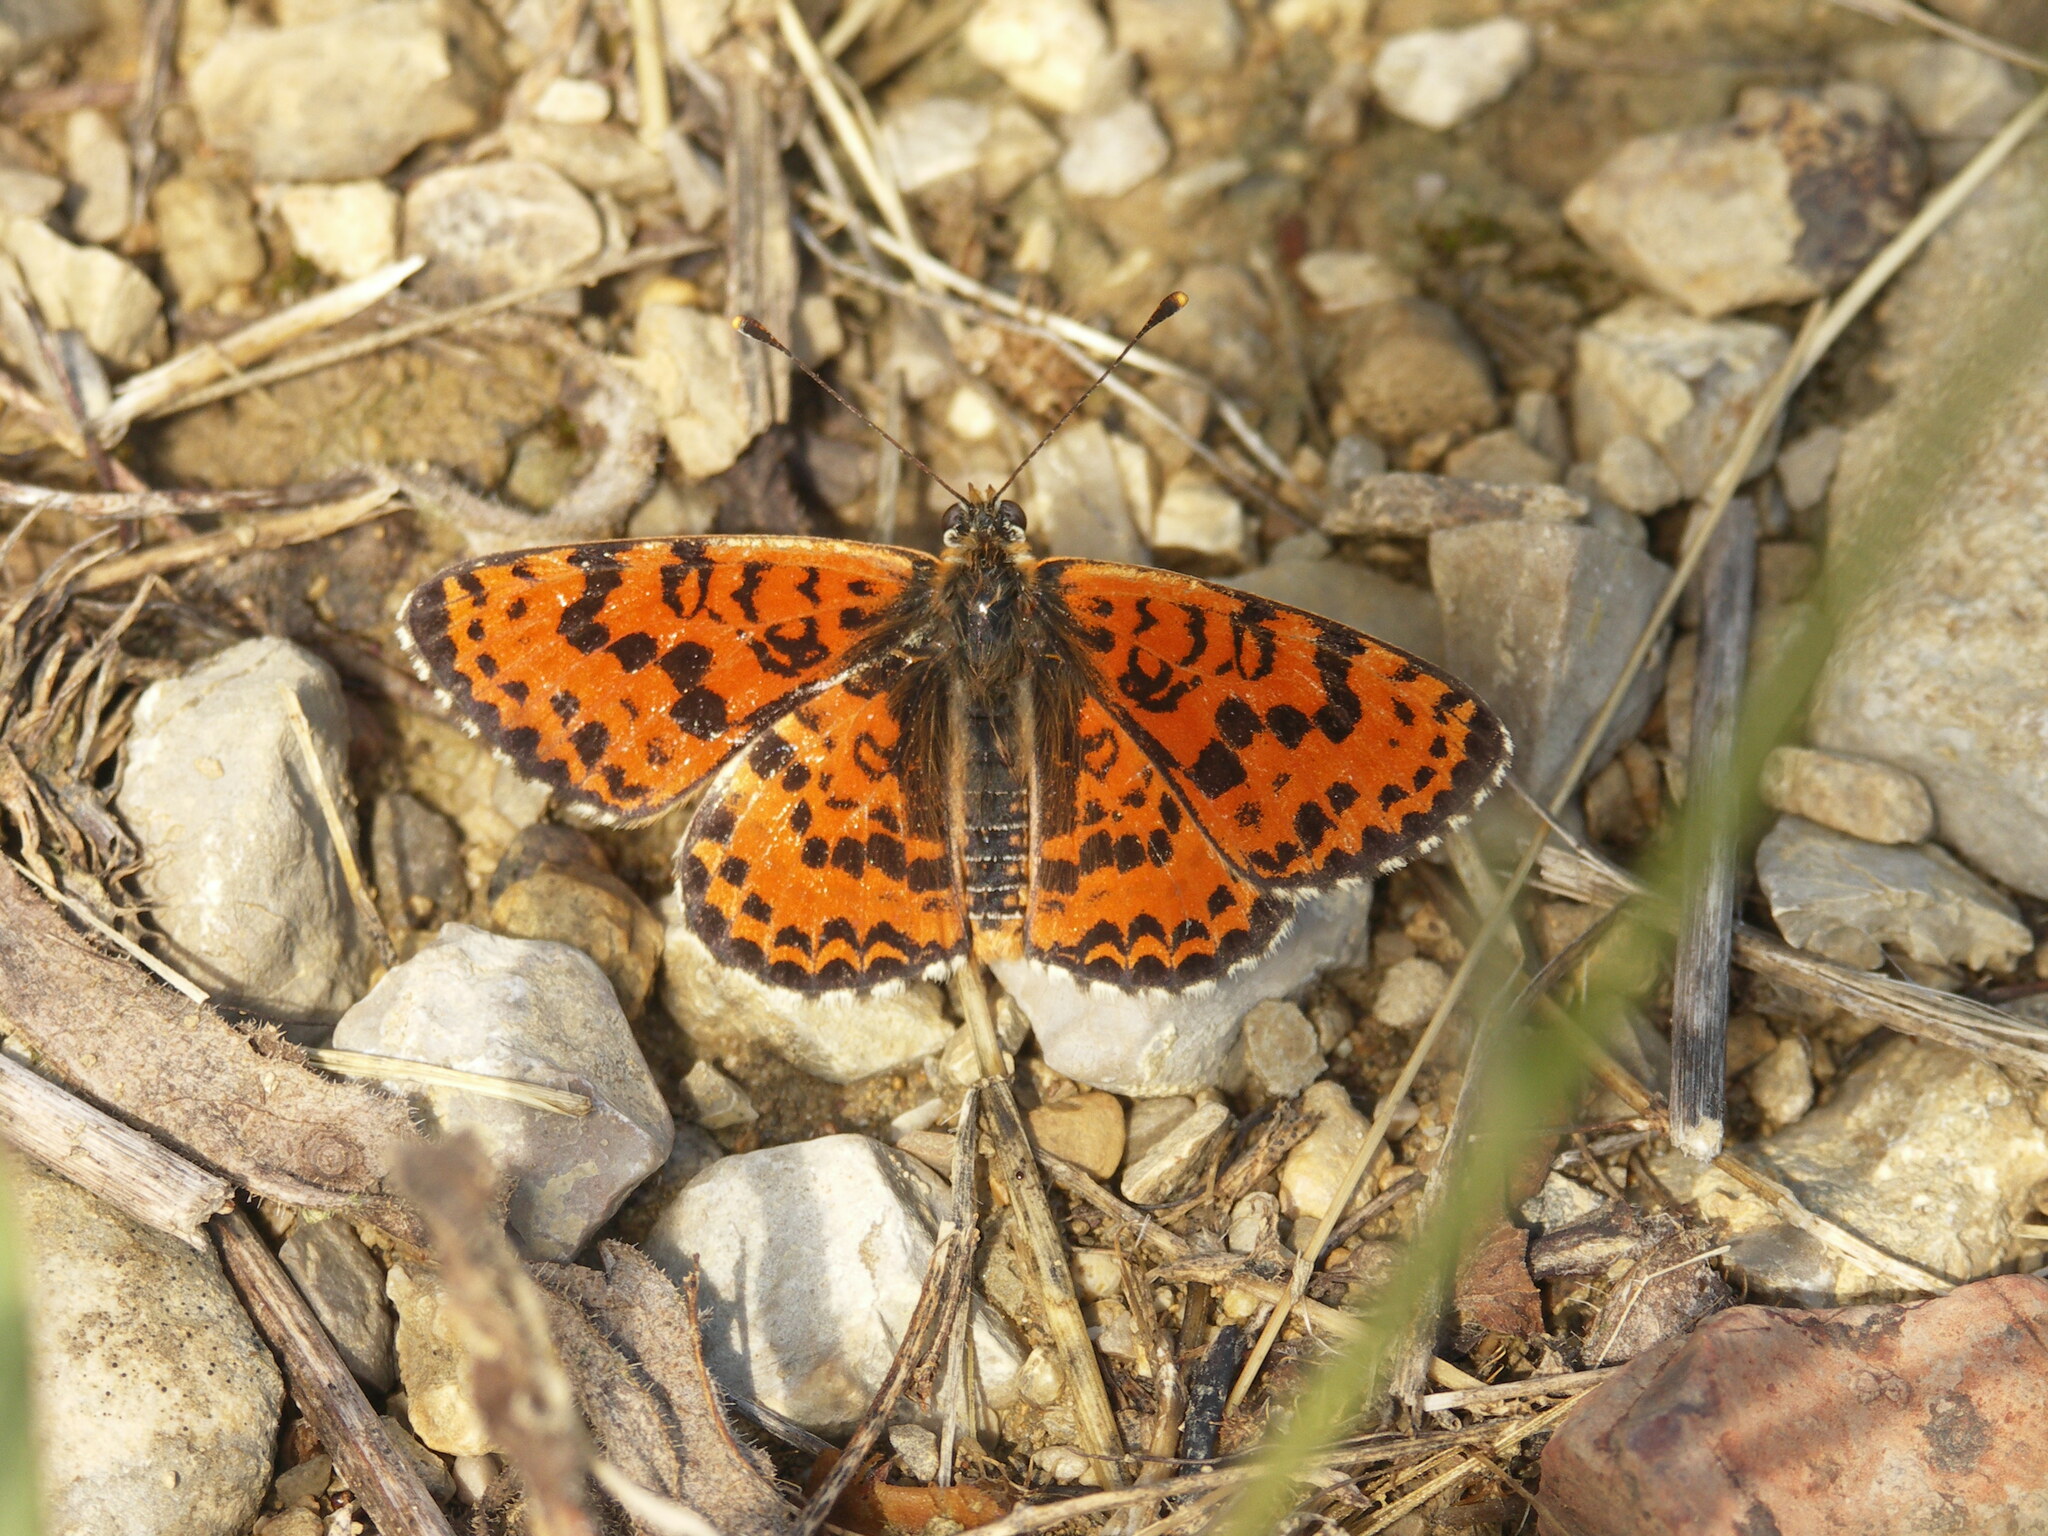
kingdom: Animalia
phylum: Arthropoda
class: Insecta
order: Lepidoptera
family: Nymphalidae
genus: Melitaea
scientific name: Melitaea didyma
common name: Spotted fritillary
